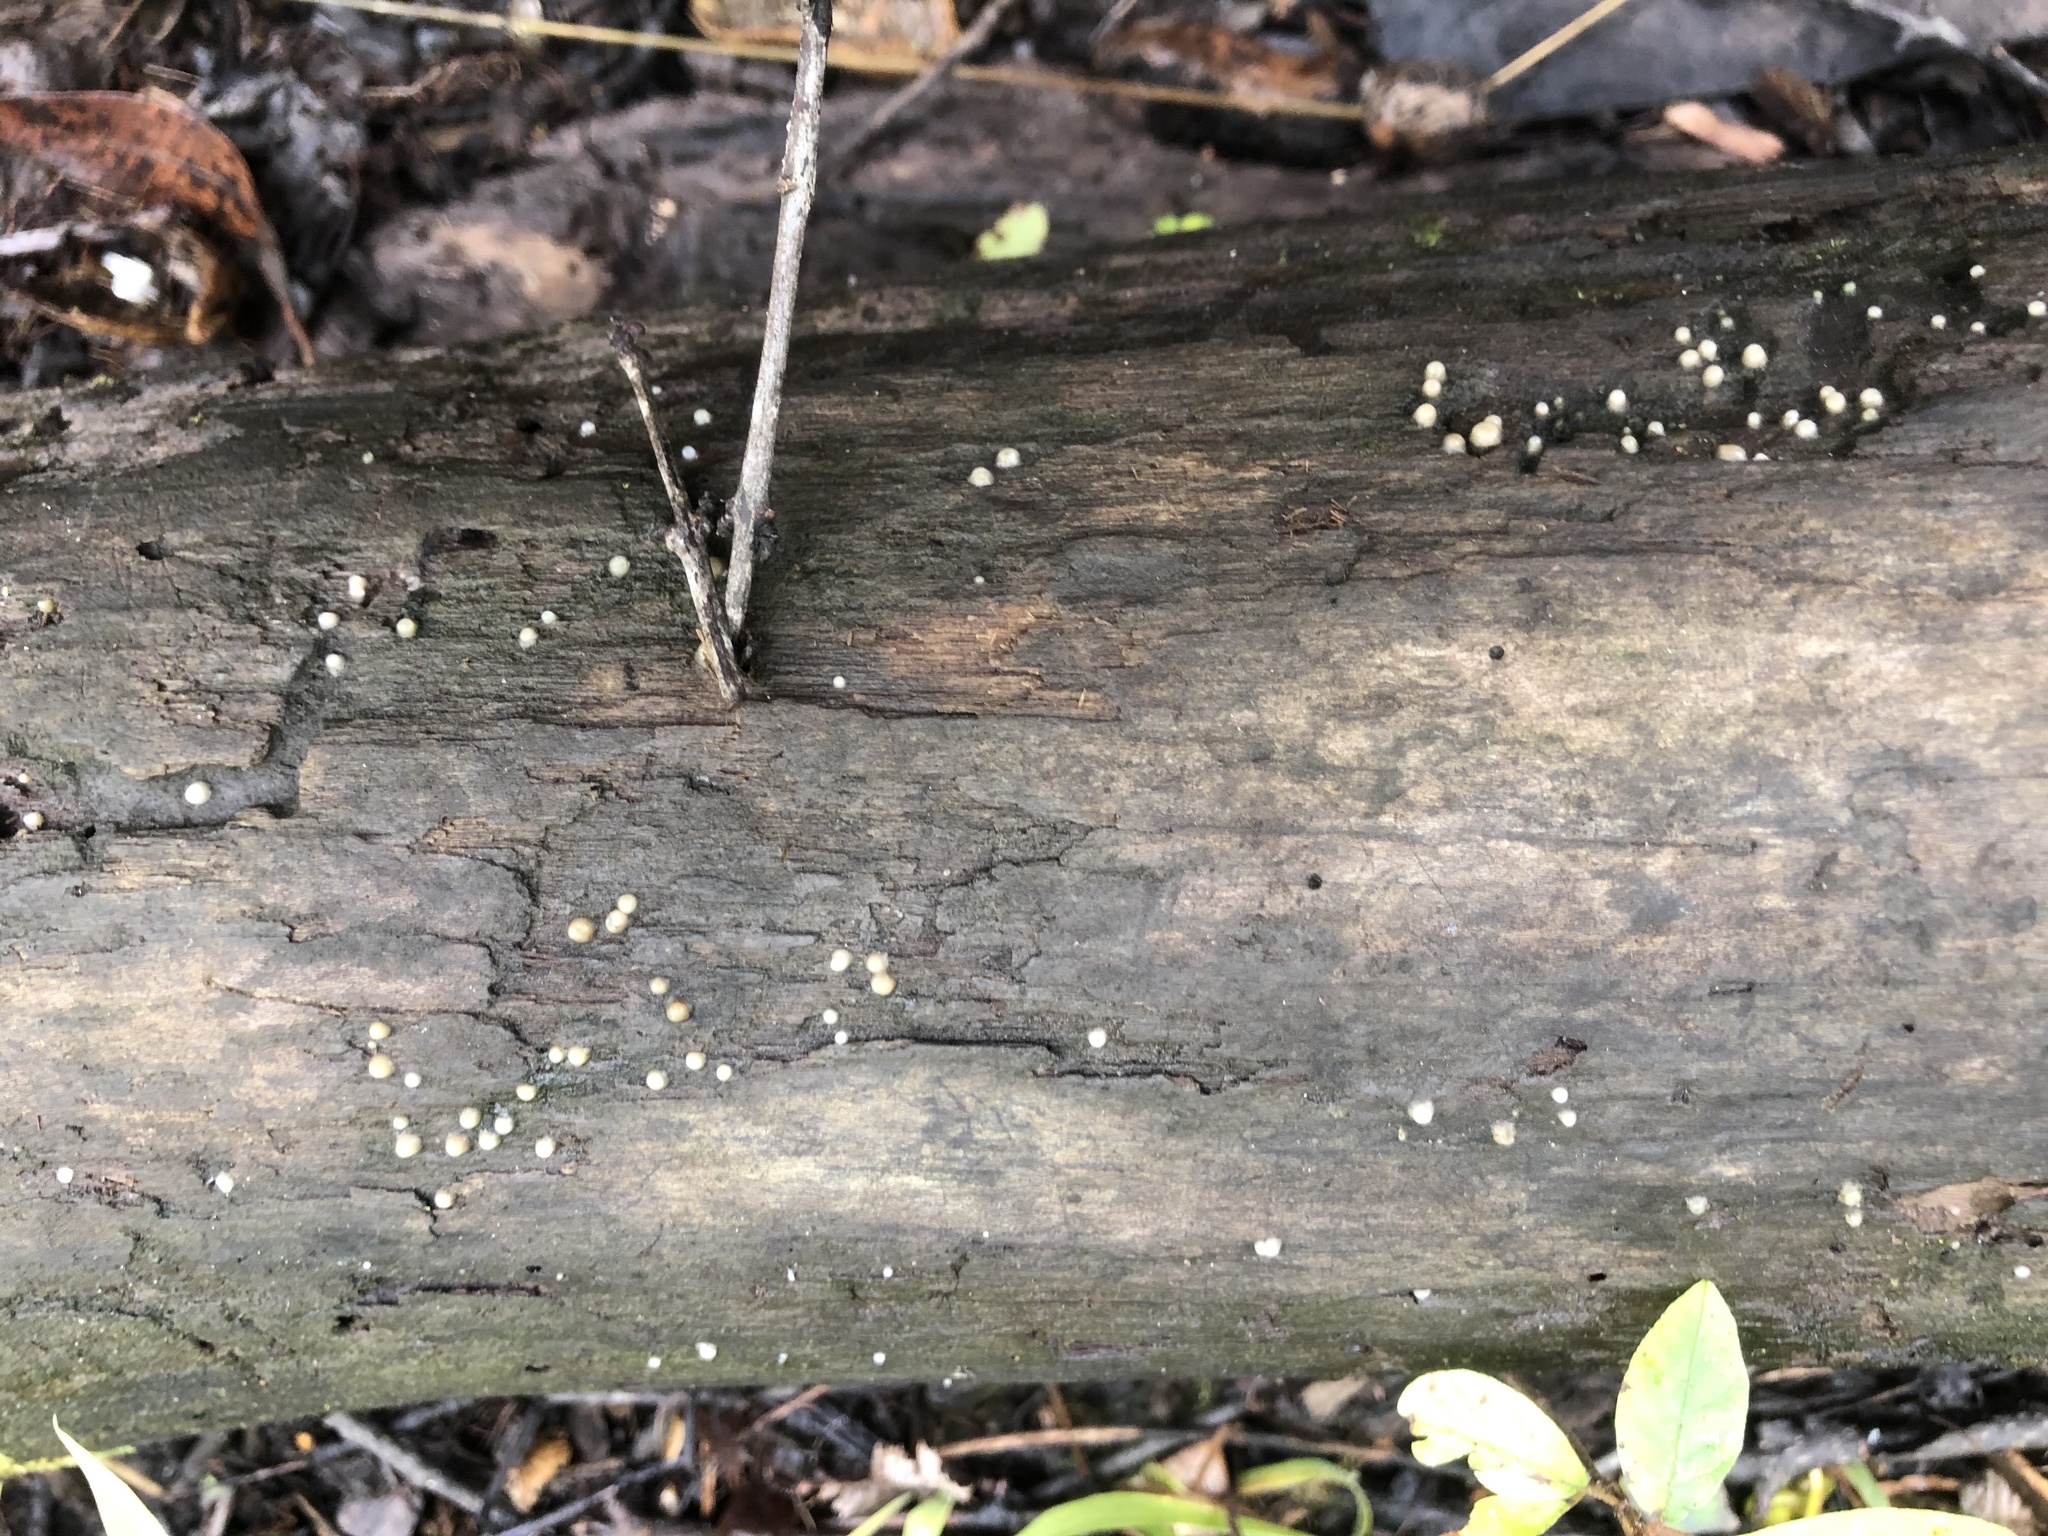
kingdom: Fungi
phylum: Basidiomycota
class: Atractiellomycetes
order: Atractiellales
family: Phleogenaceae
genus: Helicogloea
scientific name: Helicogloea compressa
